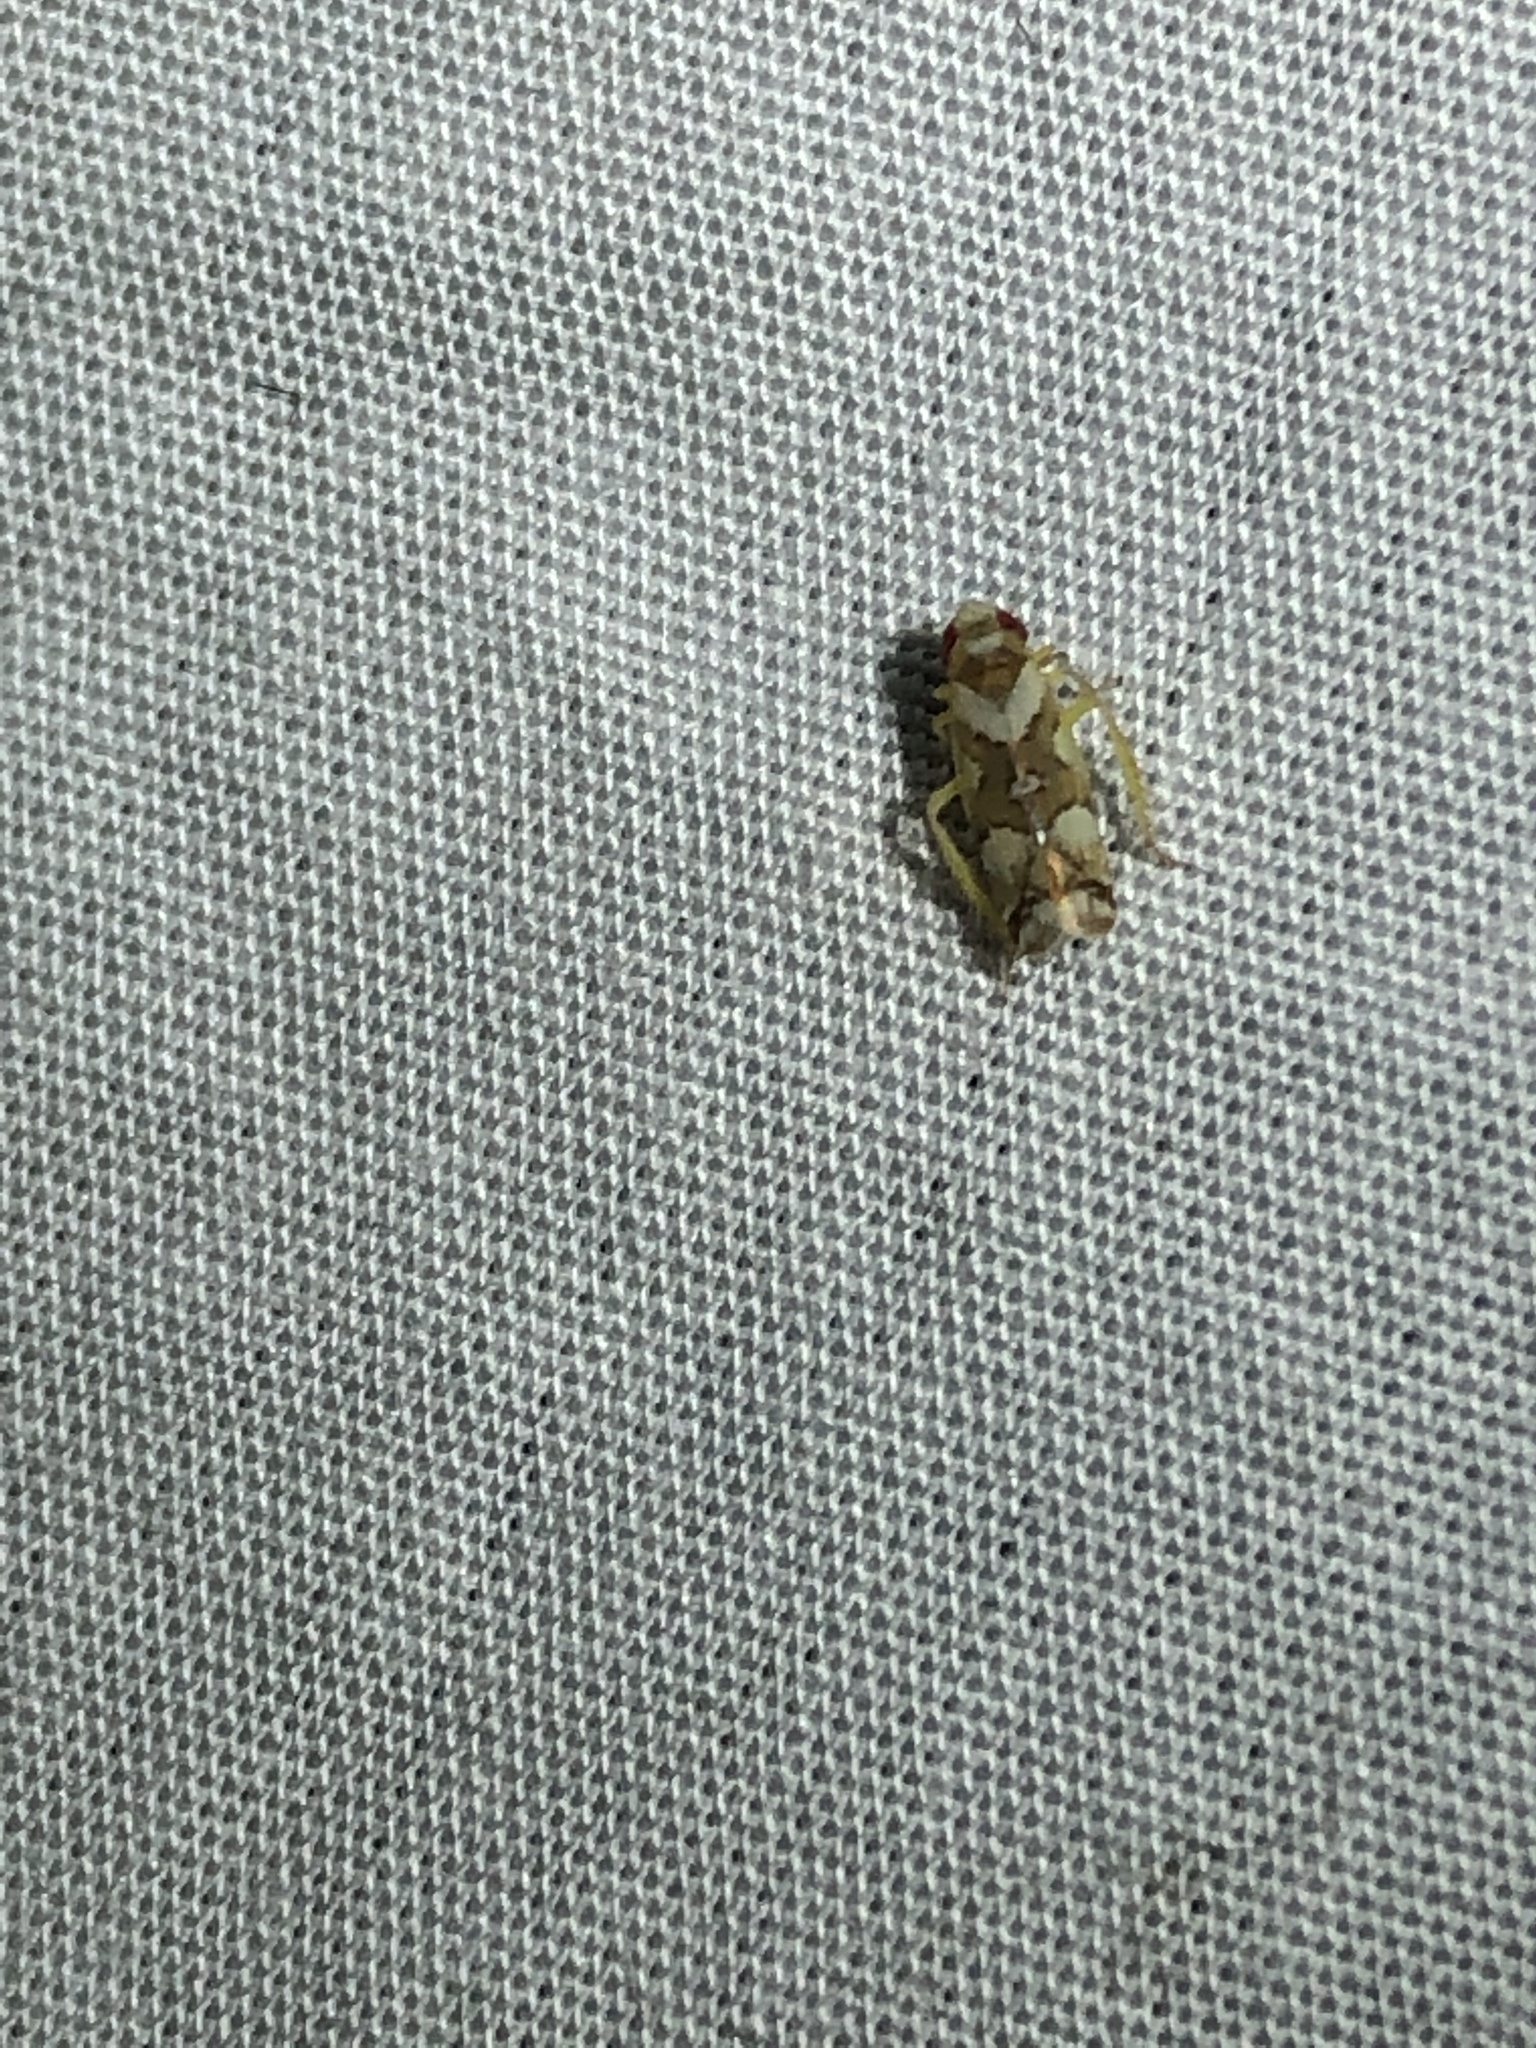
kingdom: Animalia
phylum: Arthropoda
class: Insecta
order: Hemiptera
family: Cicadellidae
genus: Sanctanus
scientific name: Sanctanus balli
